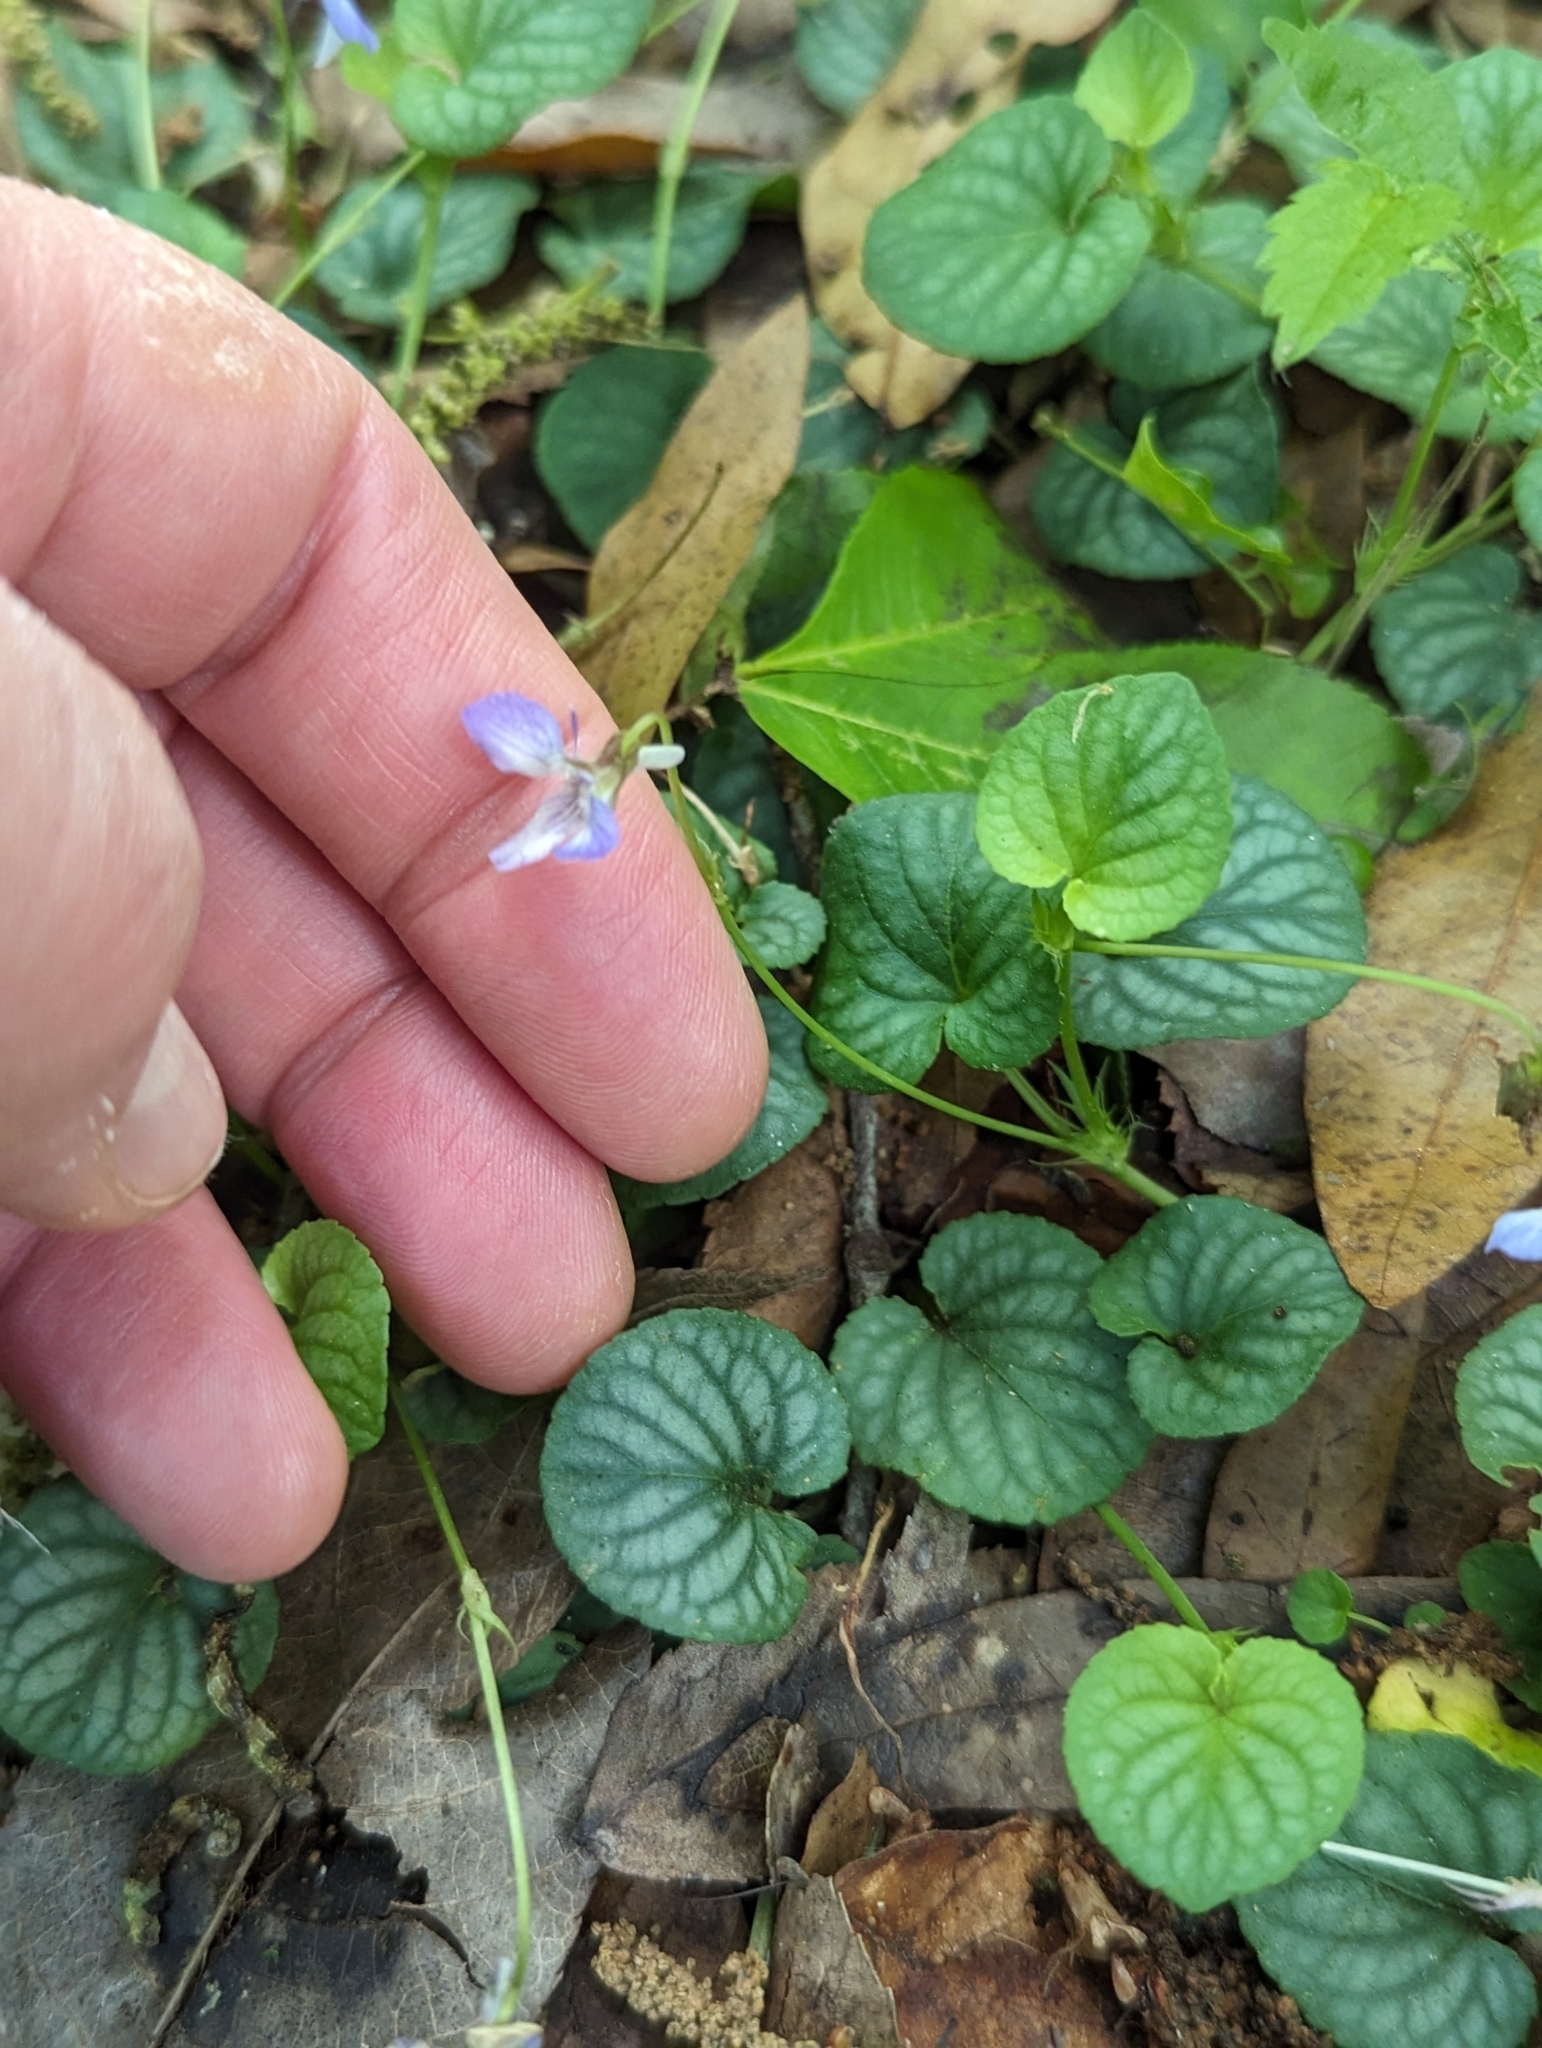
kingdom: Plantae
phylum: Tracheophyta
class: Magnoliopsida
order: Malpighiales
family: Violaceae
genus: Viola
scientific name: Viola walteri
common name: Prostrate southern violet
